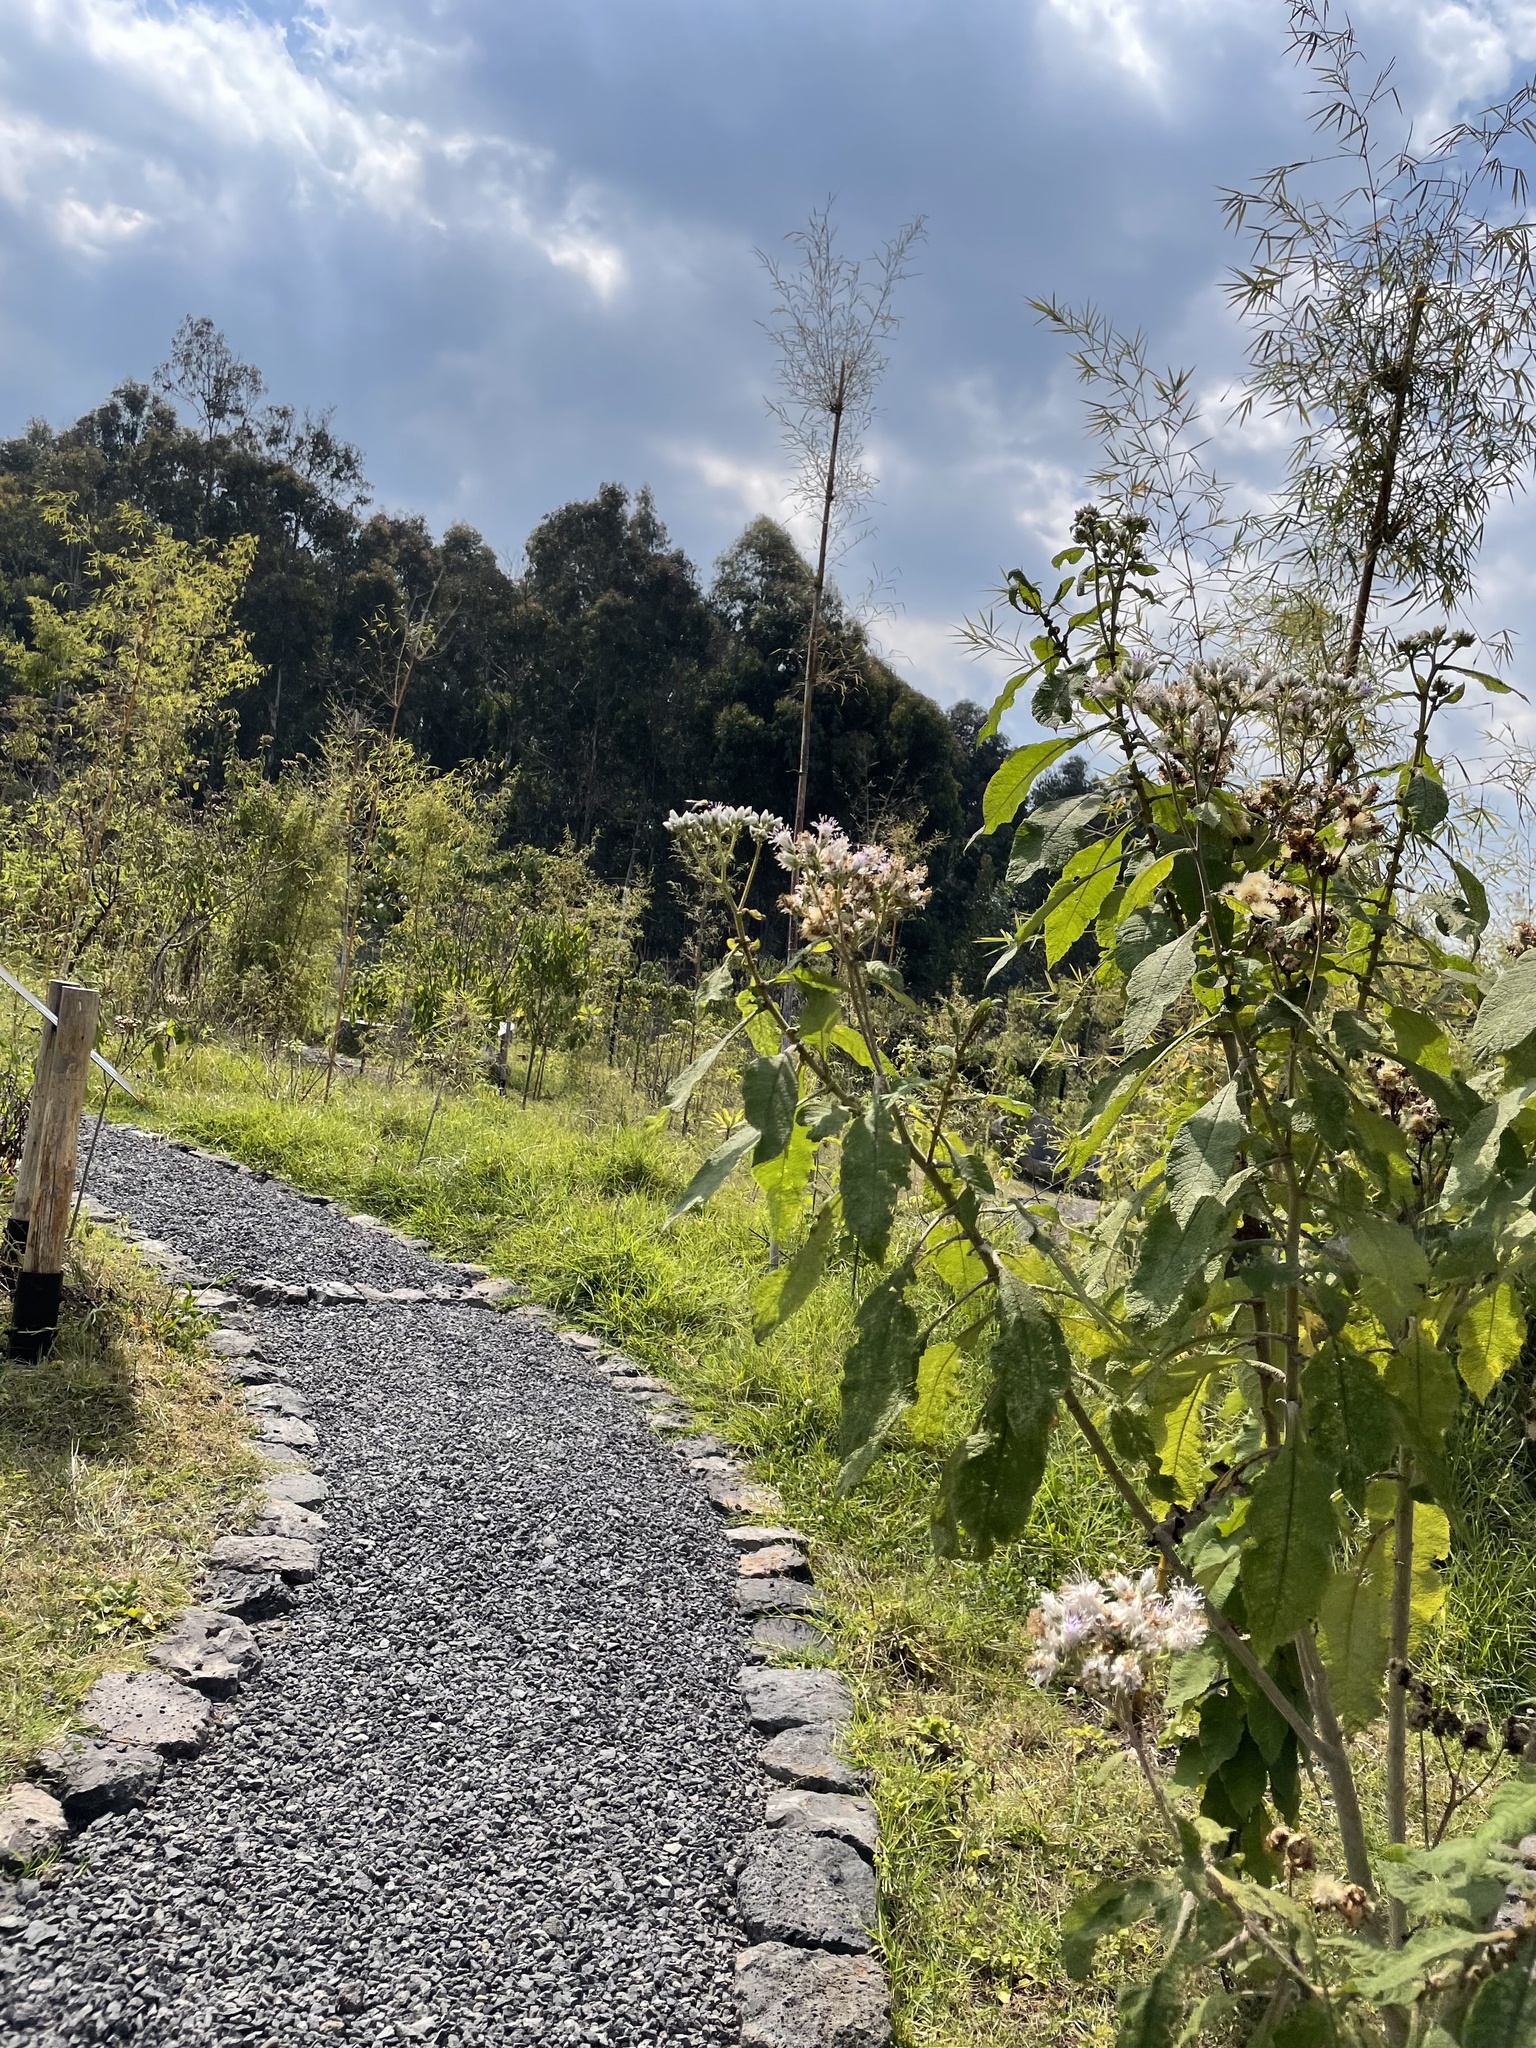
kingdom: Plantae
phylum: Tracheophyta
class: Magnoliopsida
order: Asterales
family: Asteraceae
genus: Baccharoides
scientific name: Baccharoides kirungae
